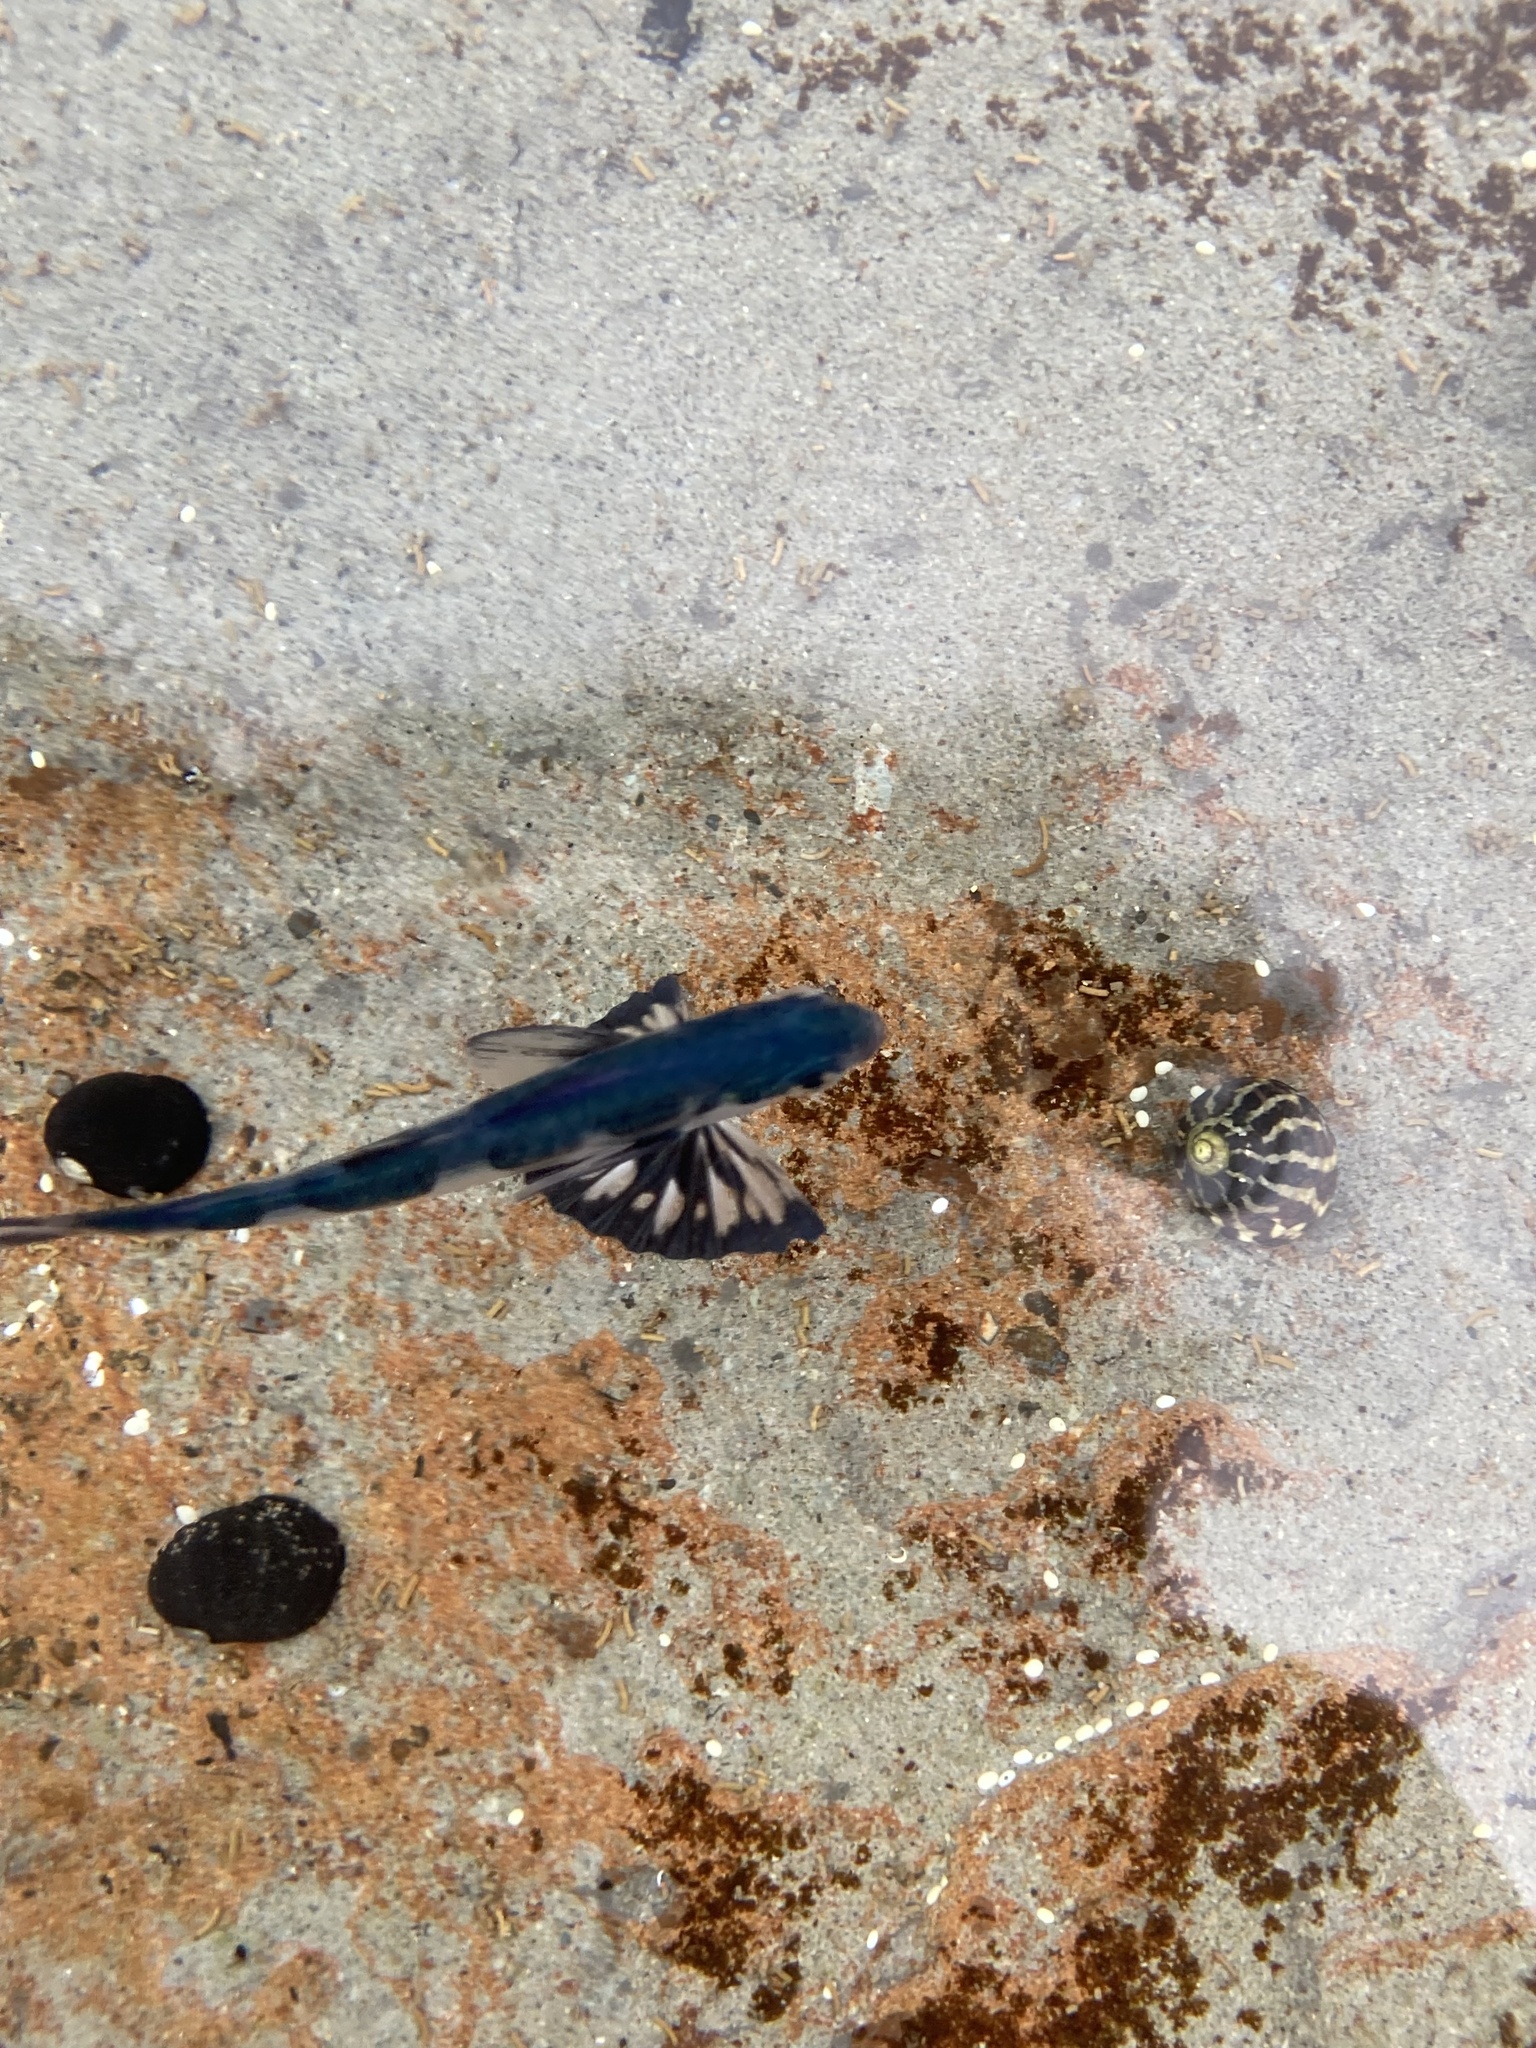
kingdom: Animalia
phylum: Chordata
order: Perciformes
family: Nomeidae
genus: Nomeus
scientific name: Nomeus gronovii
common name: Man-of-war fish
